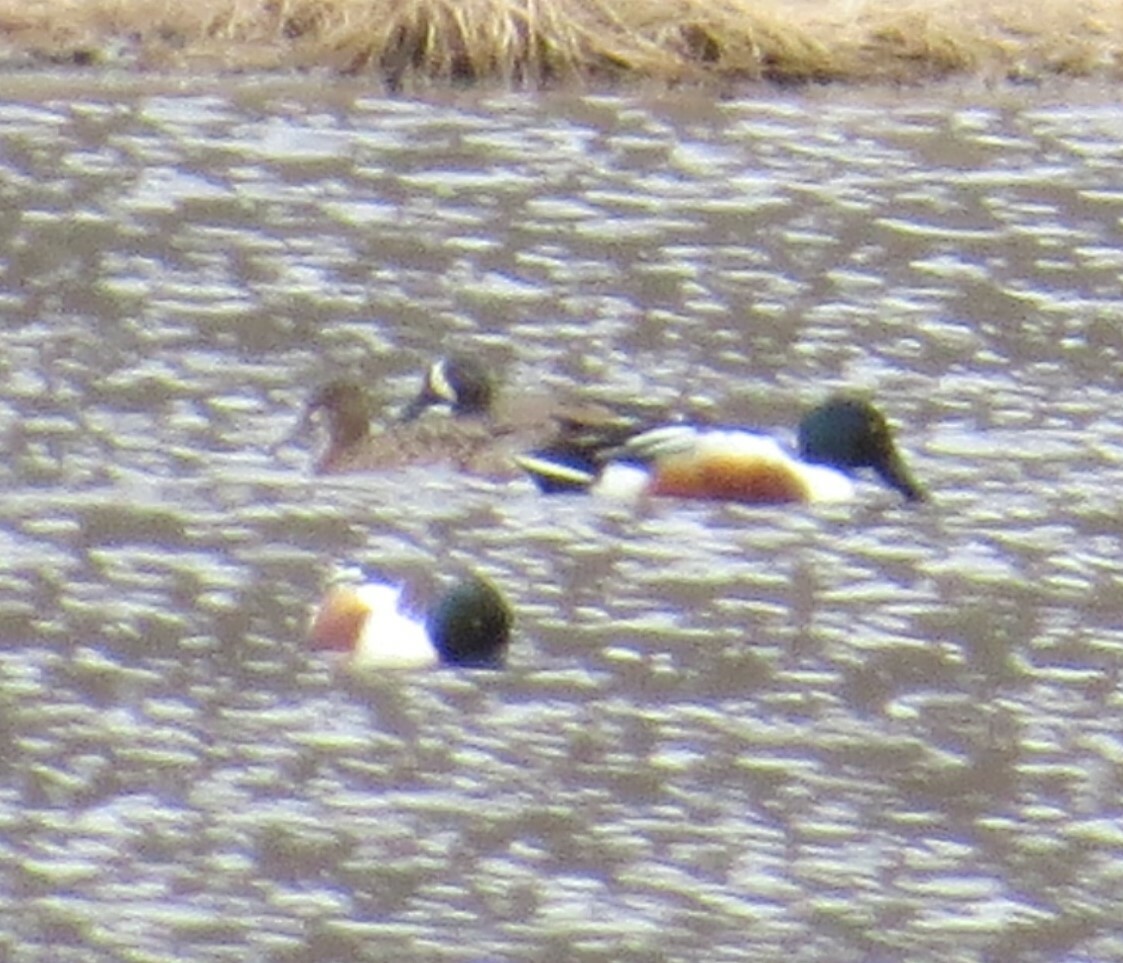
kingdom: Animalia
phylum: Chordata
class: Aves
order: Anseriformes
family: Anatidae
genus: Spatula
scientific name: Spatula clypeata
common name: Northern shoveler
